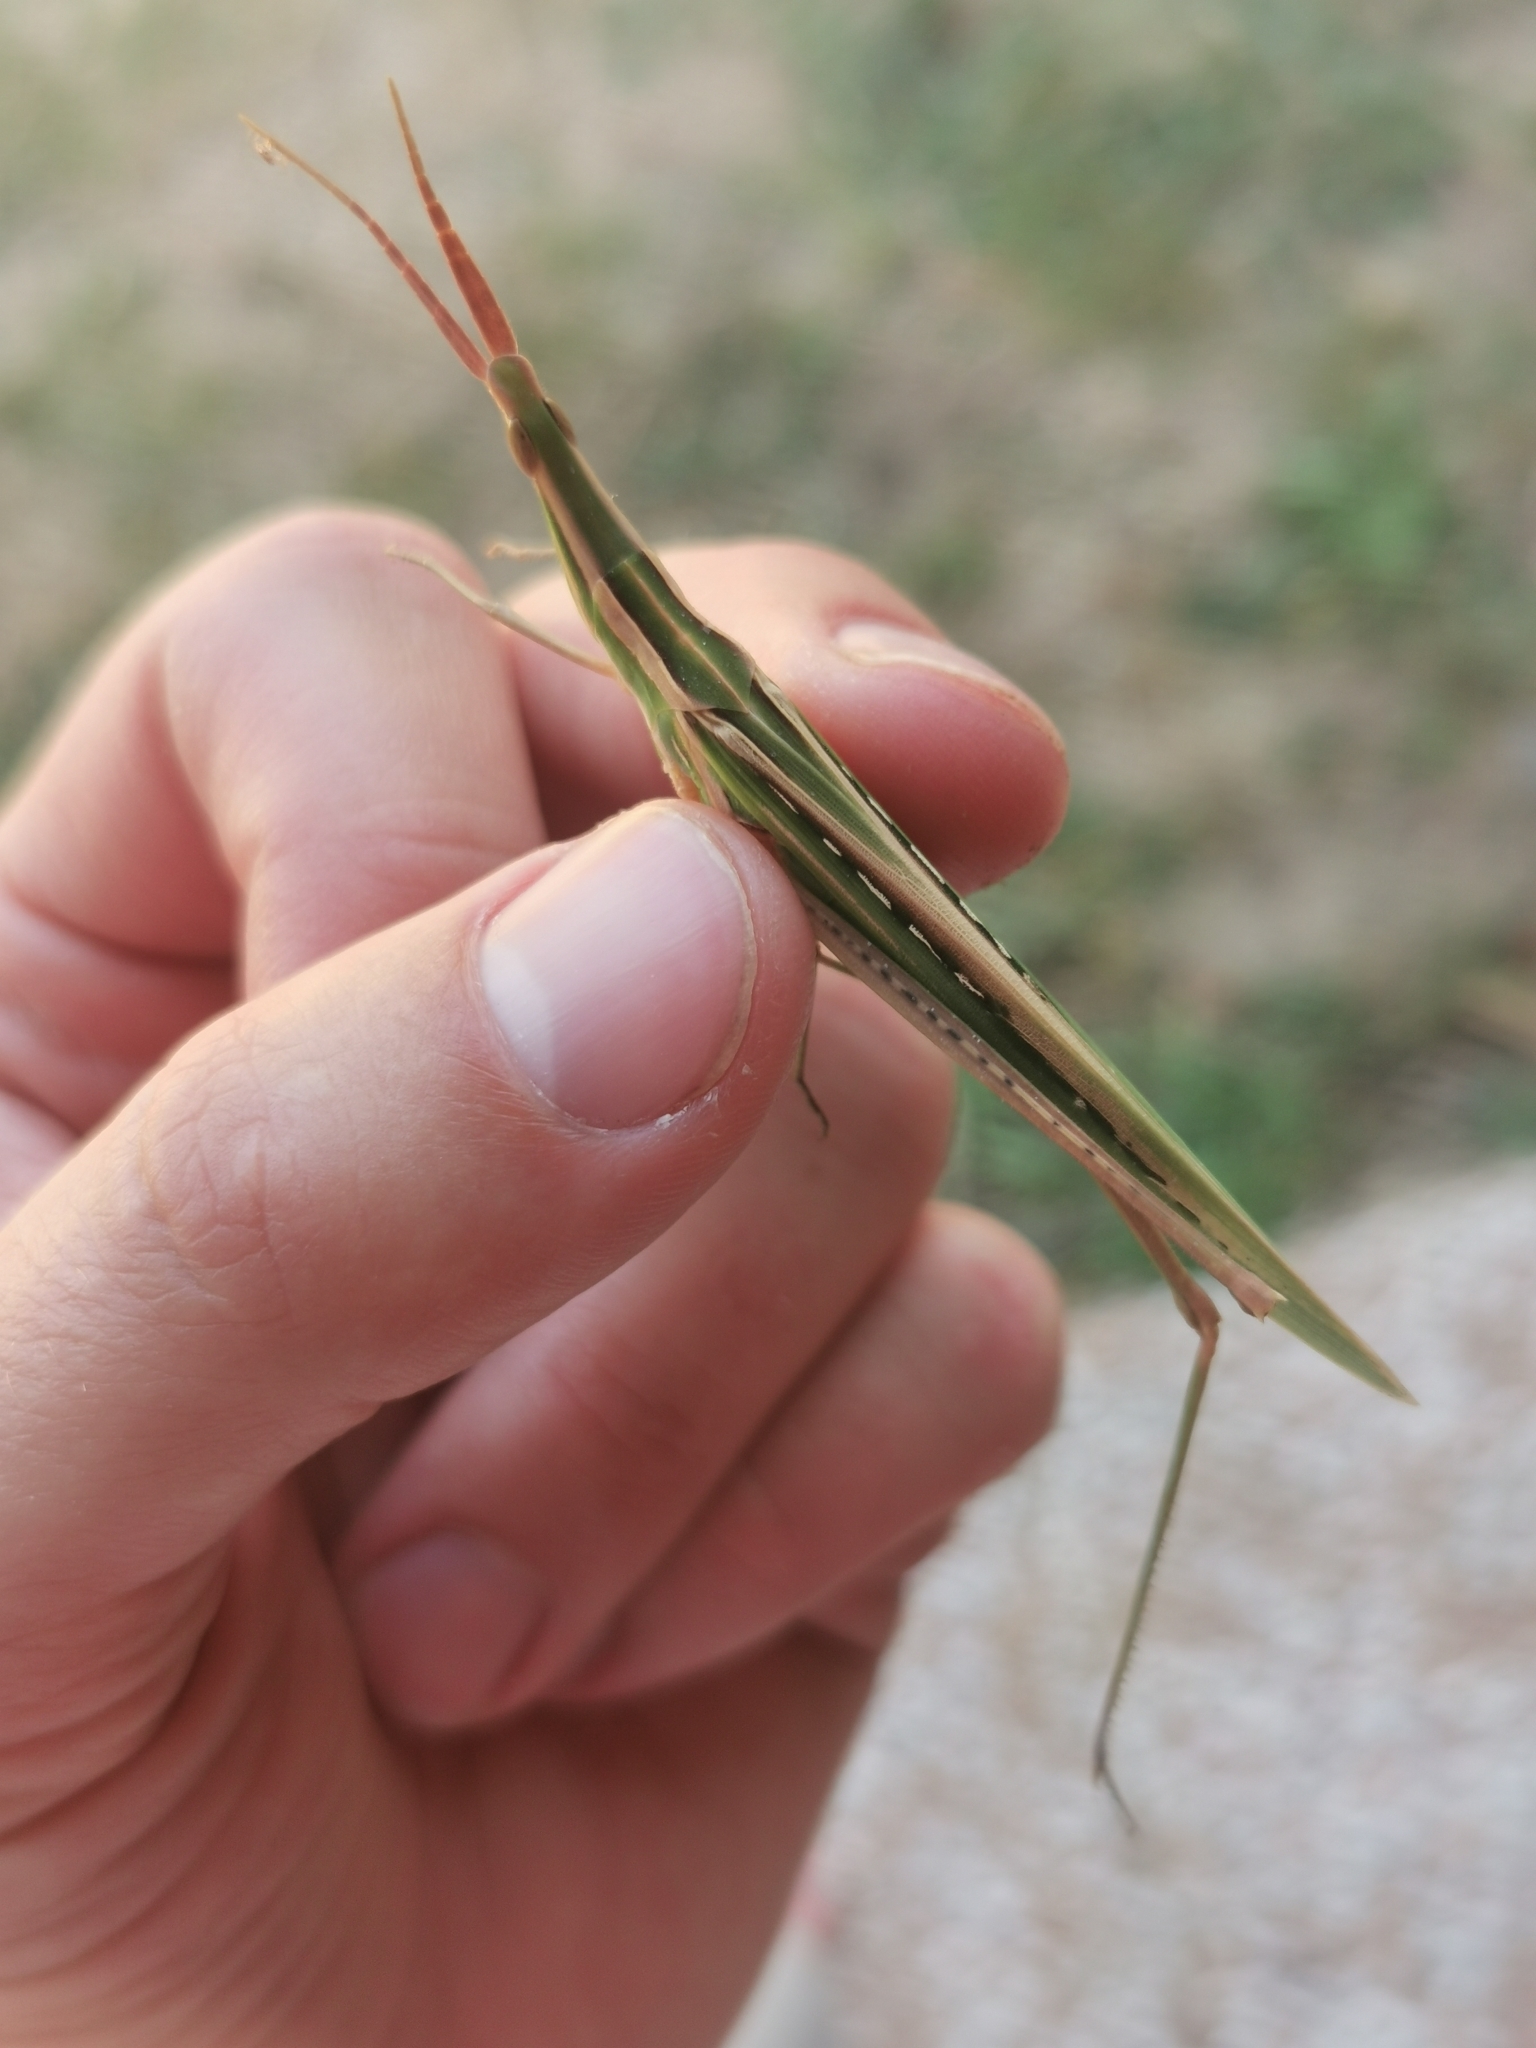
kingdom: Animalia
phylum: Arthropoda
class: Insecta
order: Orthoptera
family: Acrididae
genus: Acrida
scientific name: Acrida ungarica
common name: Common cone-headed grasshopper
